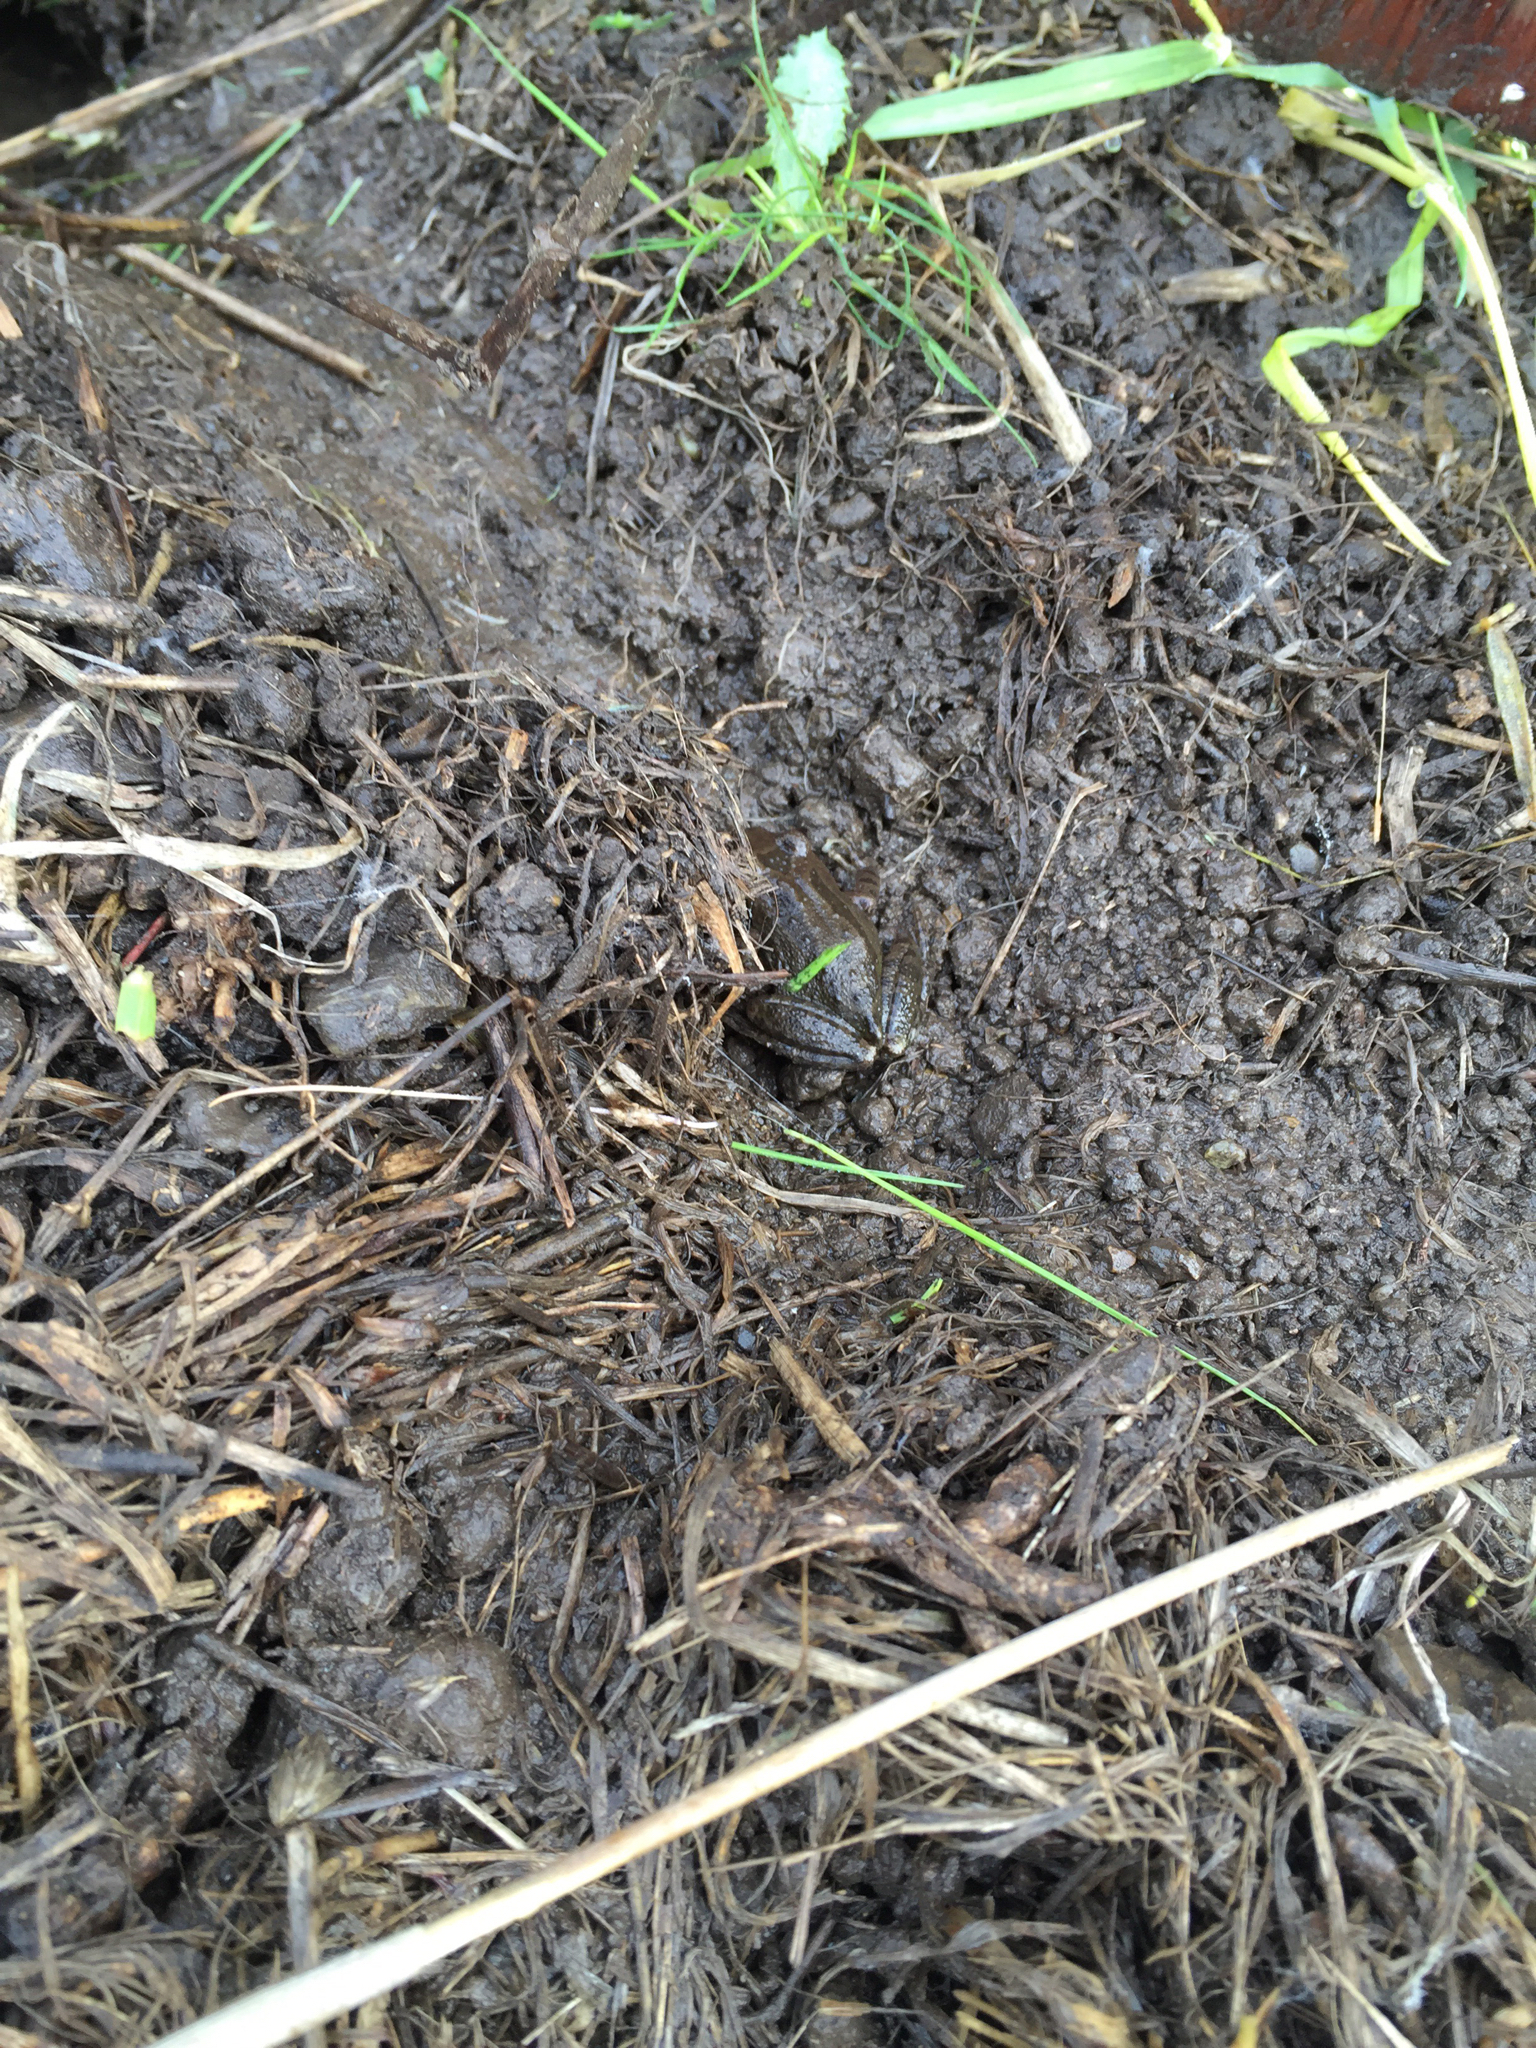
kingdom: Animalia
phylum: Chordata
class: Amphibia
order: Anura
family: Hylidae
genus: Pseudacris
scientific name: Pseudacris regilla
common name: Pacific chorus frog
